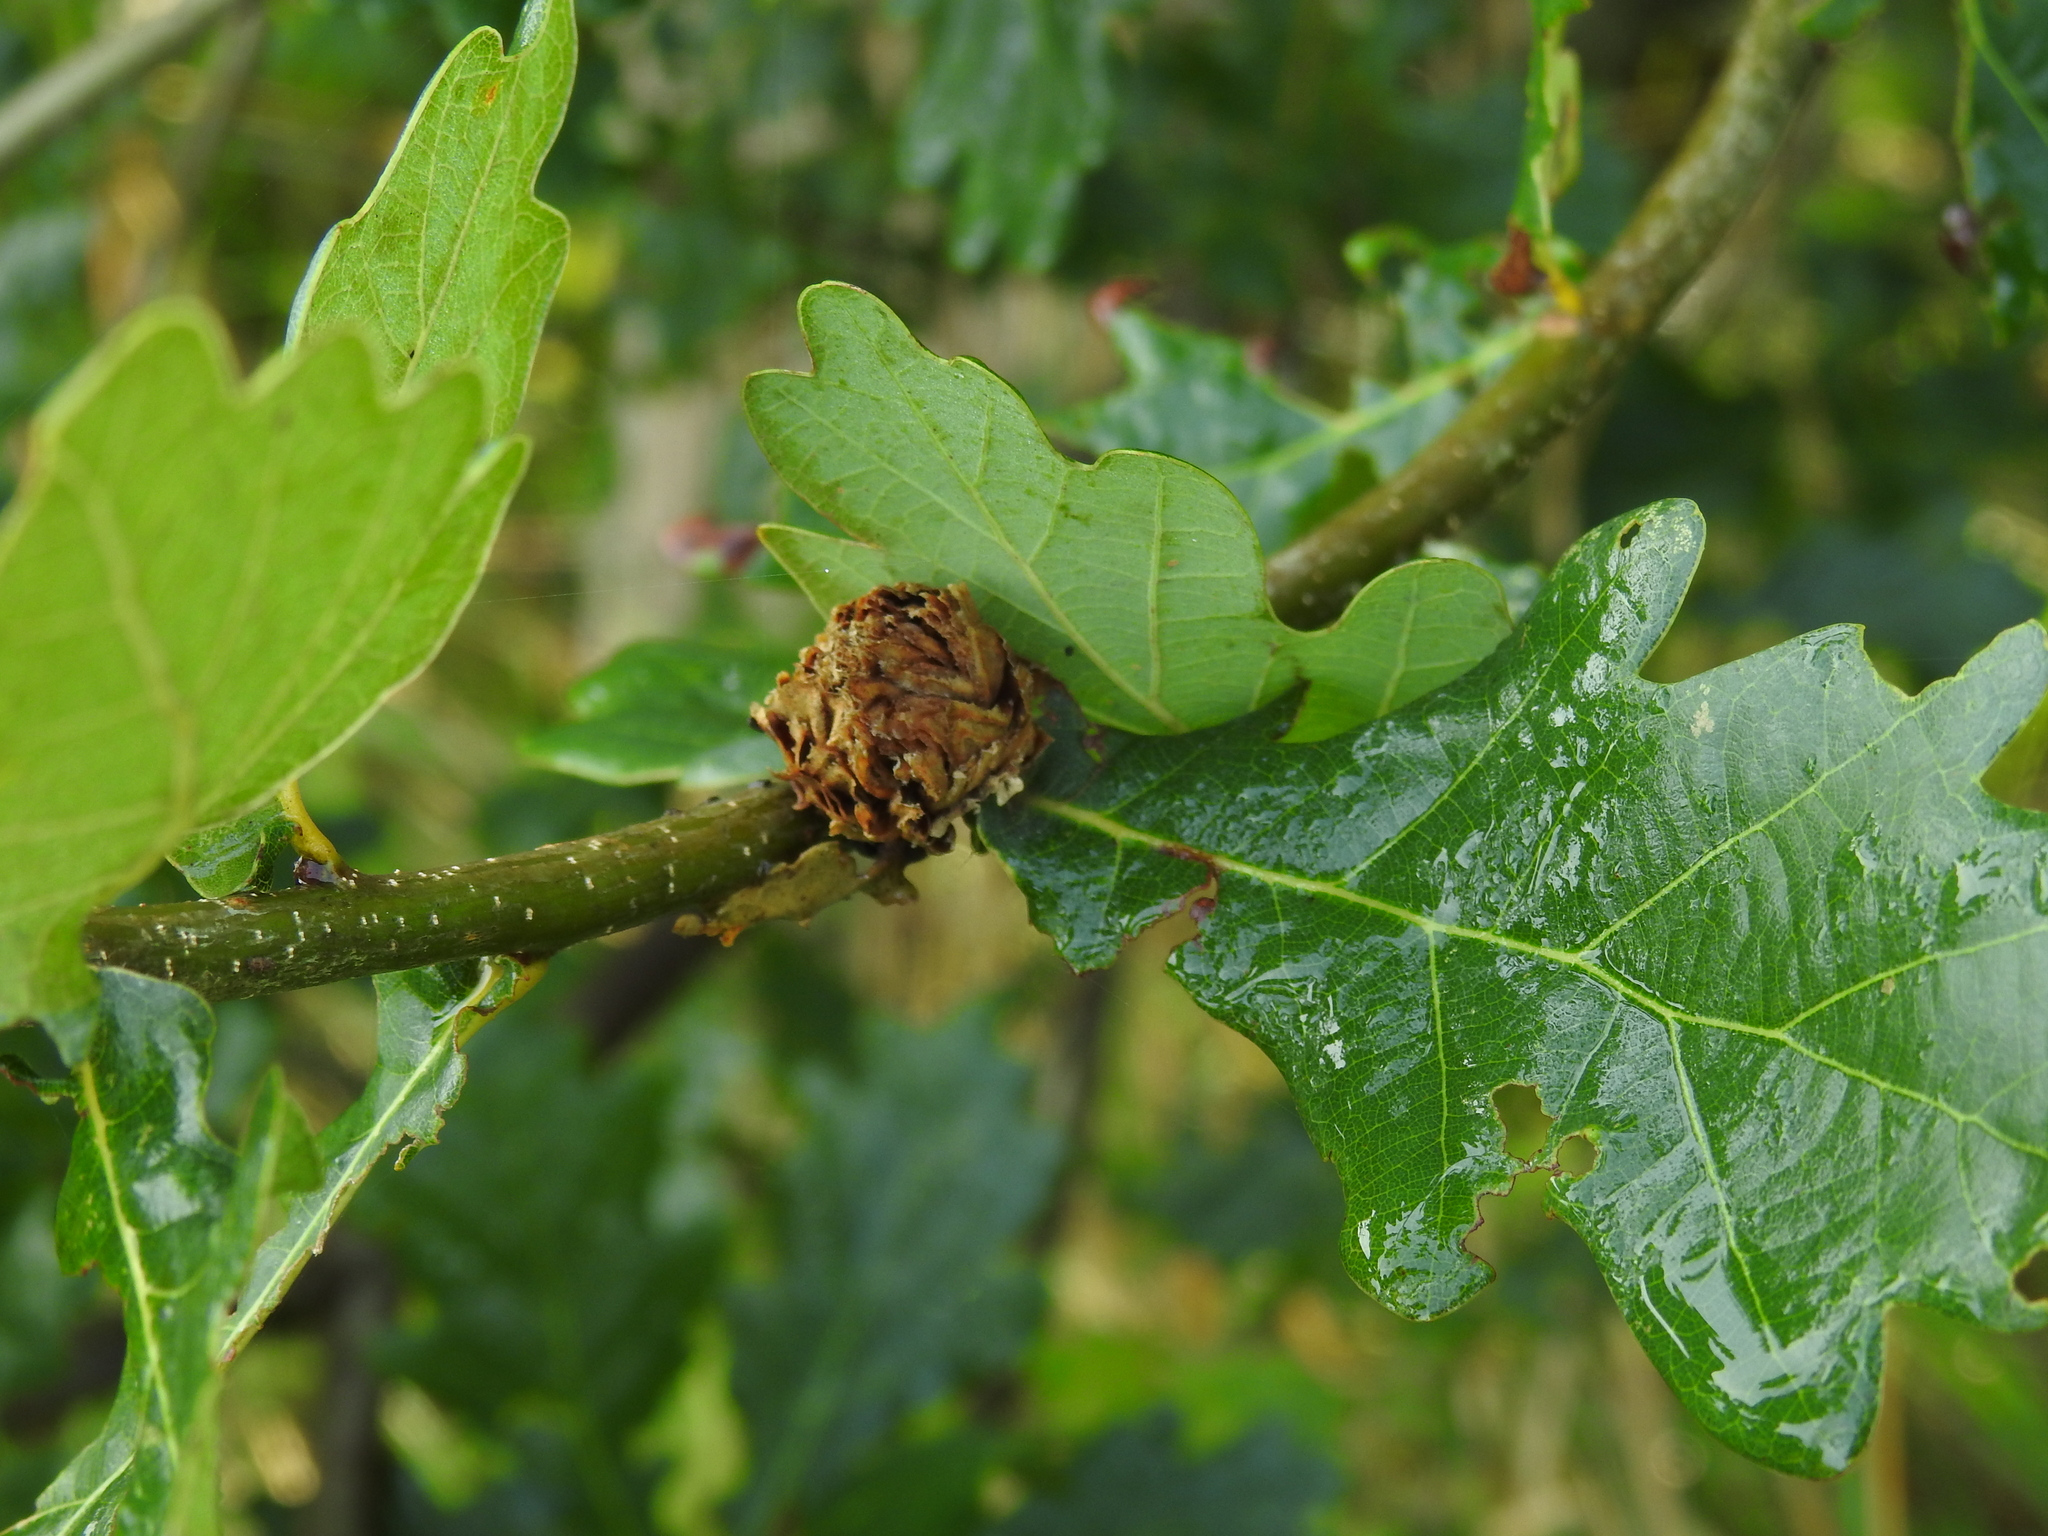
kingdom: Animalia
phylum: Arthropoda
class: Insecta
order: Hymenoptera
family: Cynipidae
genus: Andricus
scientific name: Andricus foecundatrix
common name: Artichoke gall
